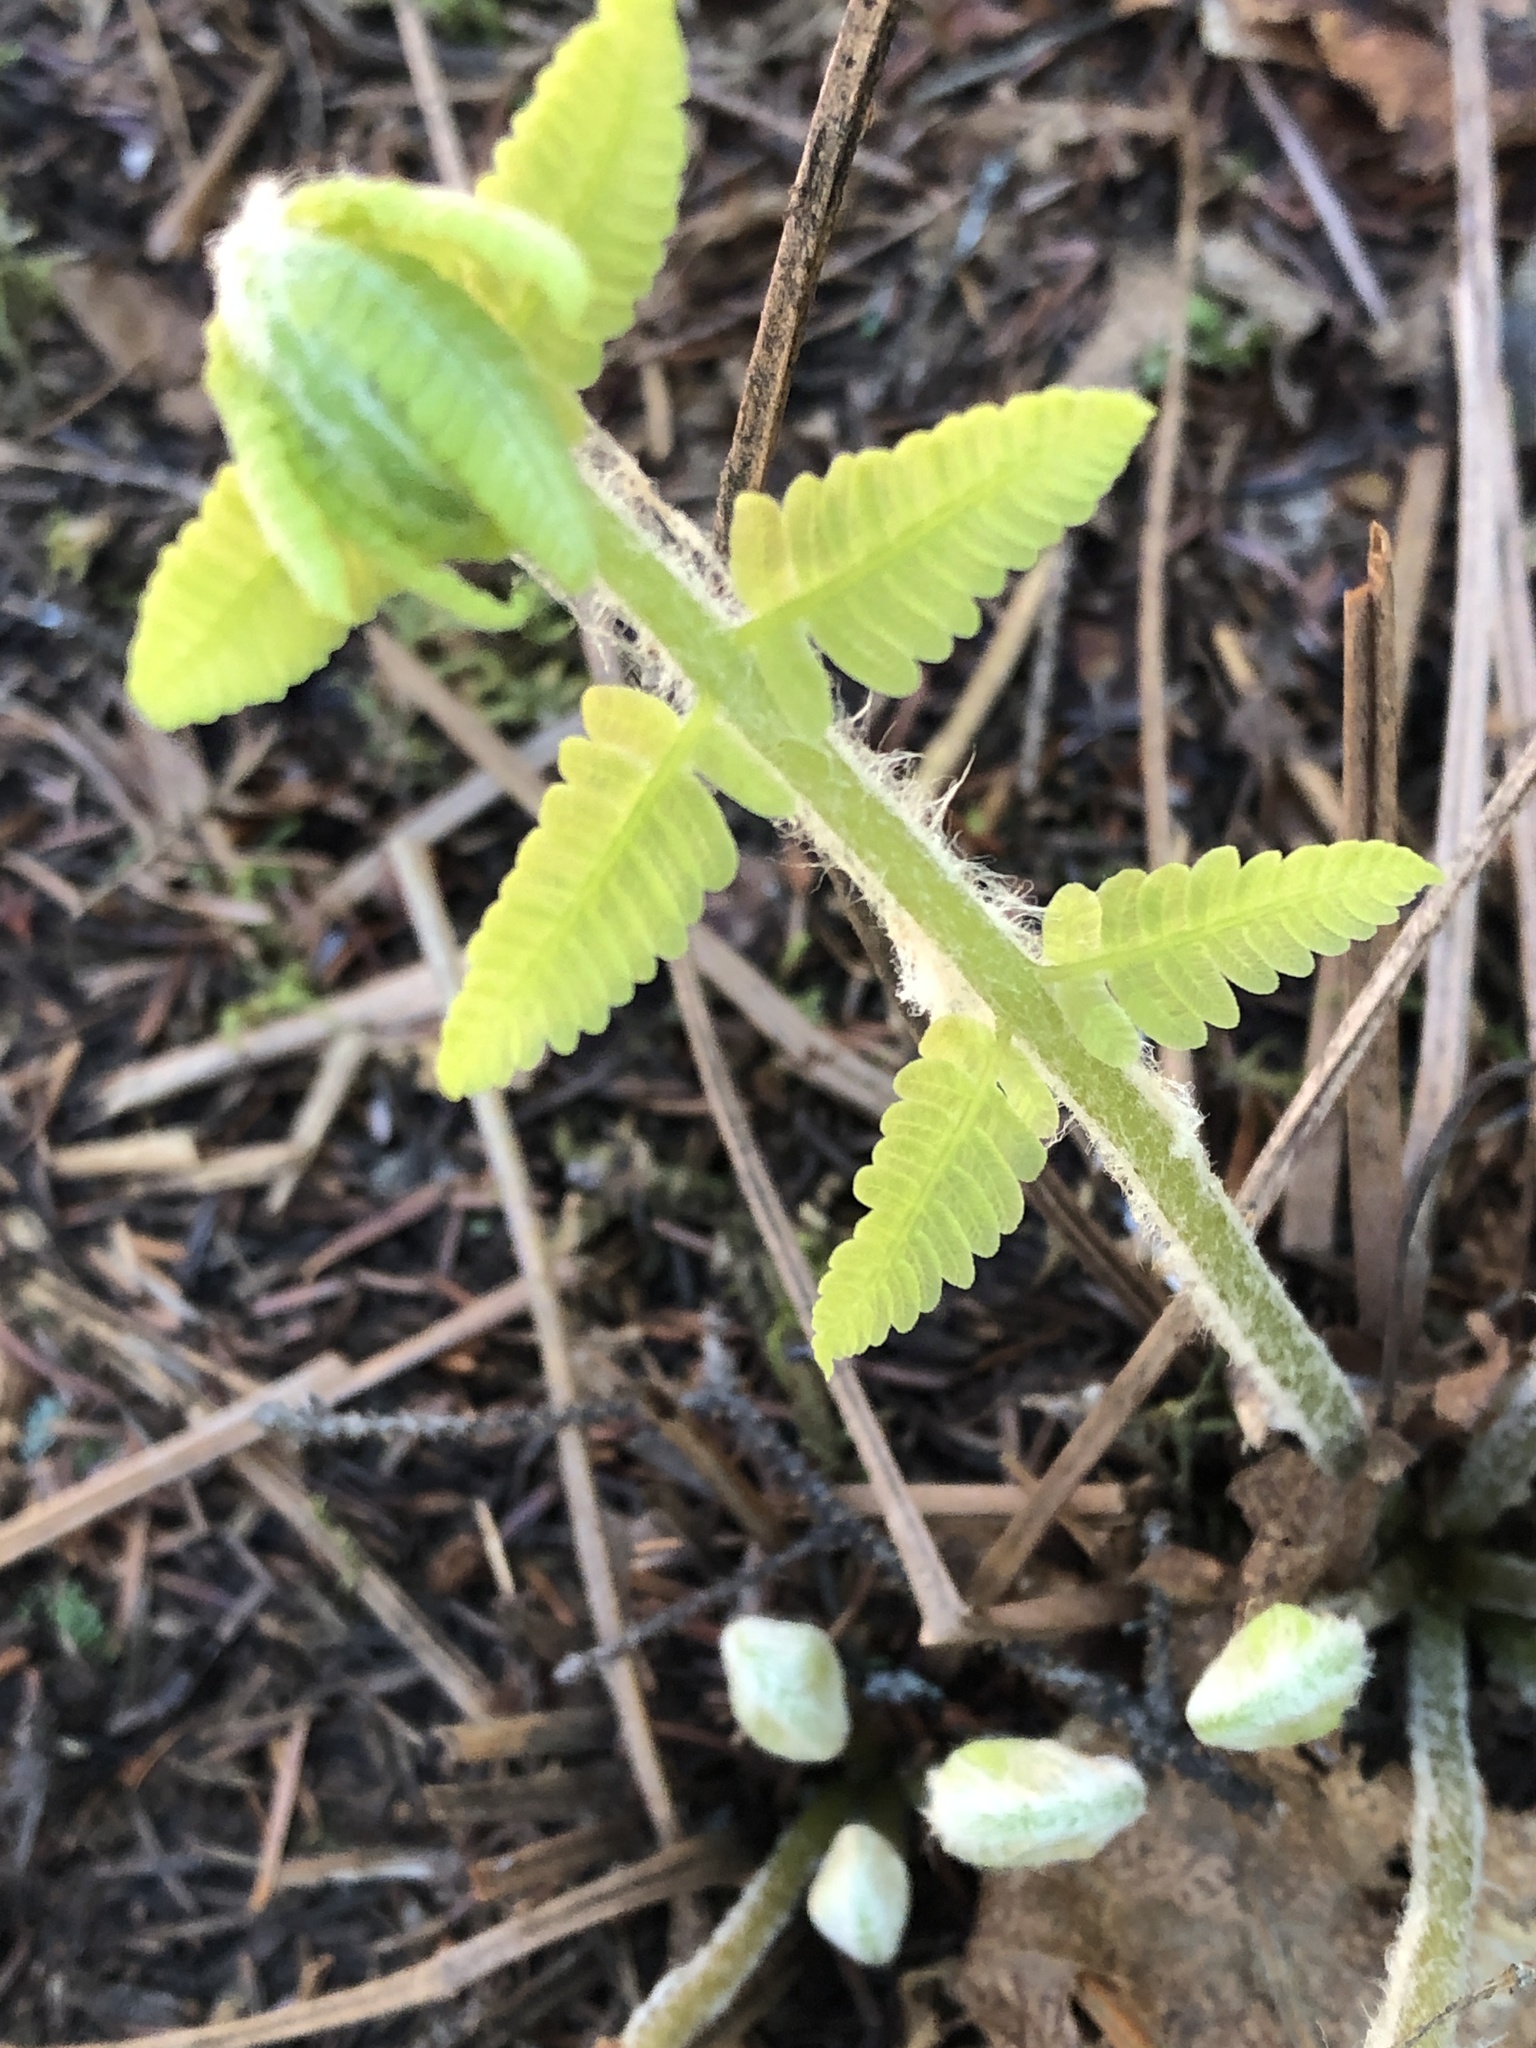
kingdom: Plantae
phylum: Tracheophyta
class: Polypodiopsida
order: Osmundales
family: Osmundaceae
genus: Claytosmunda
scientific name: Claytosmunda claytoniana
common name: Clayton's fern
